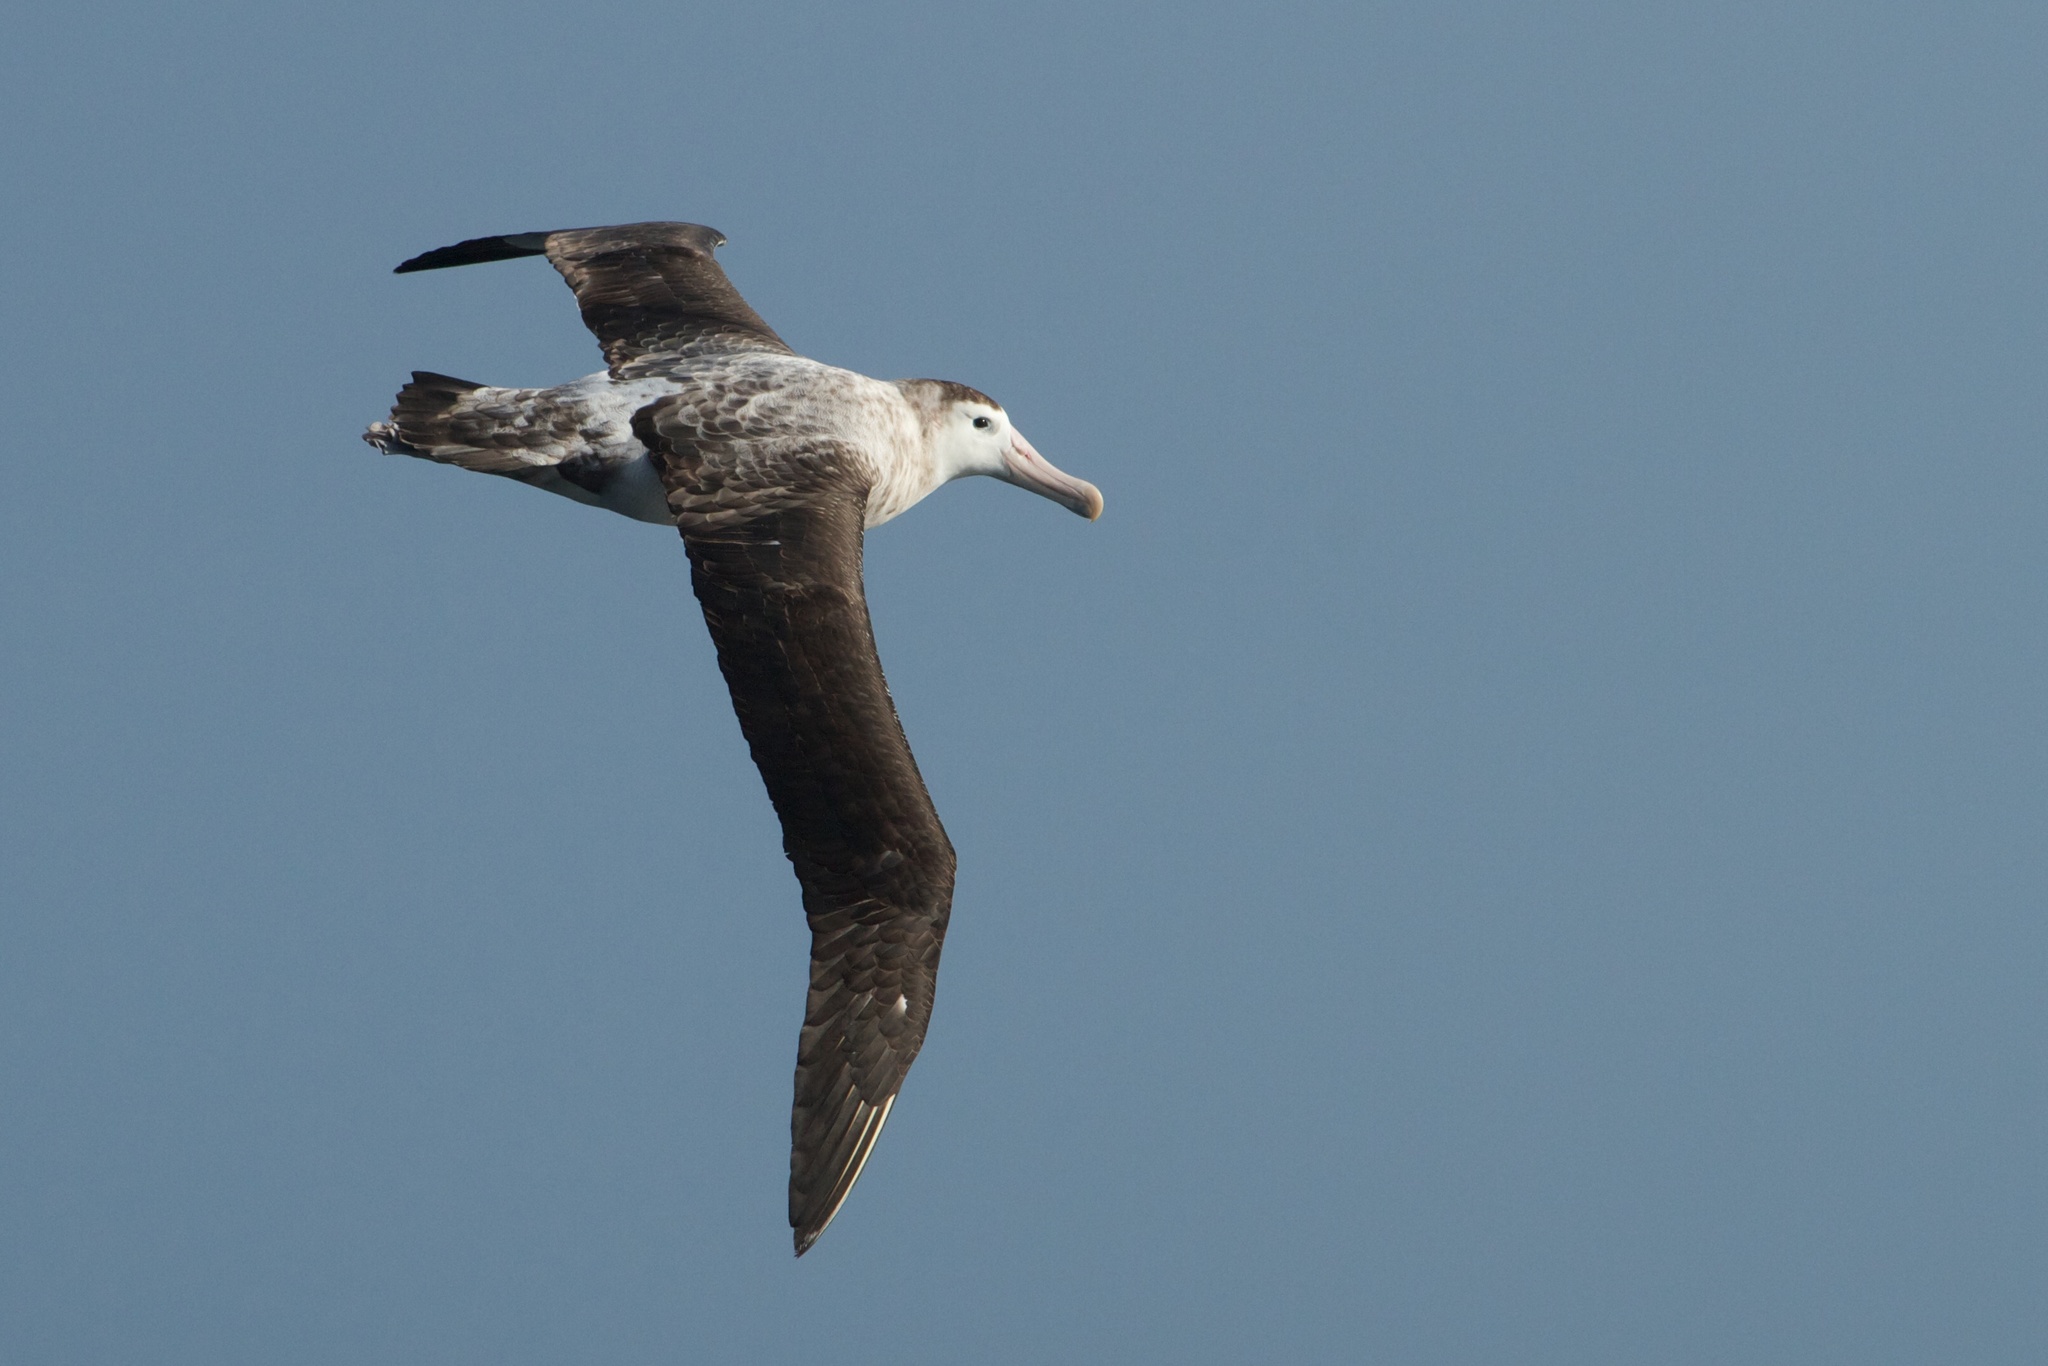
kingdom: Animalia
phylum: Chordata
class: Aves
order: Procellariiformes
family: Diomedeidae
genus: Diomedea
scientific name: Diomedea exulans
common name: Wandering albatross
